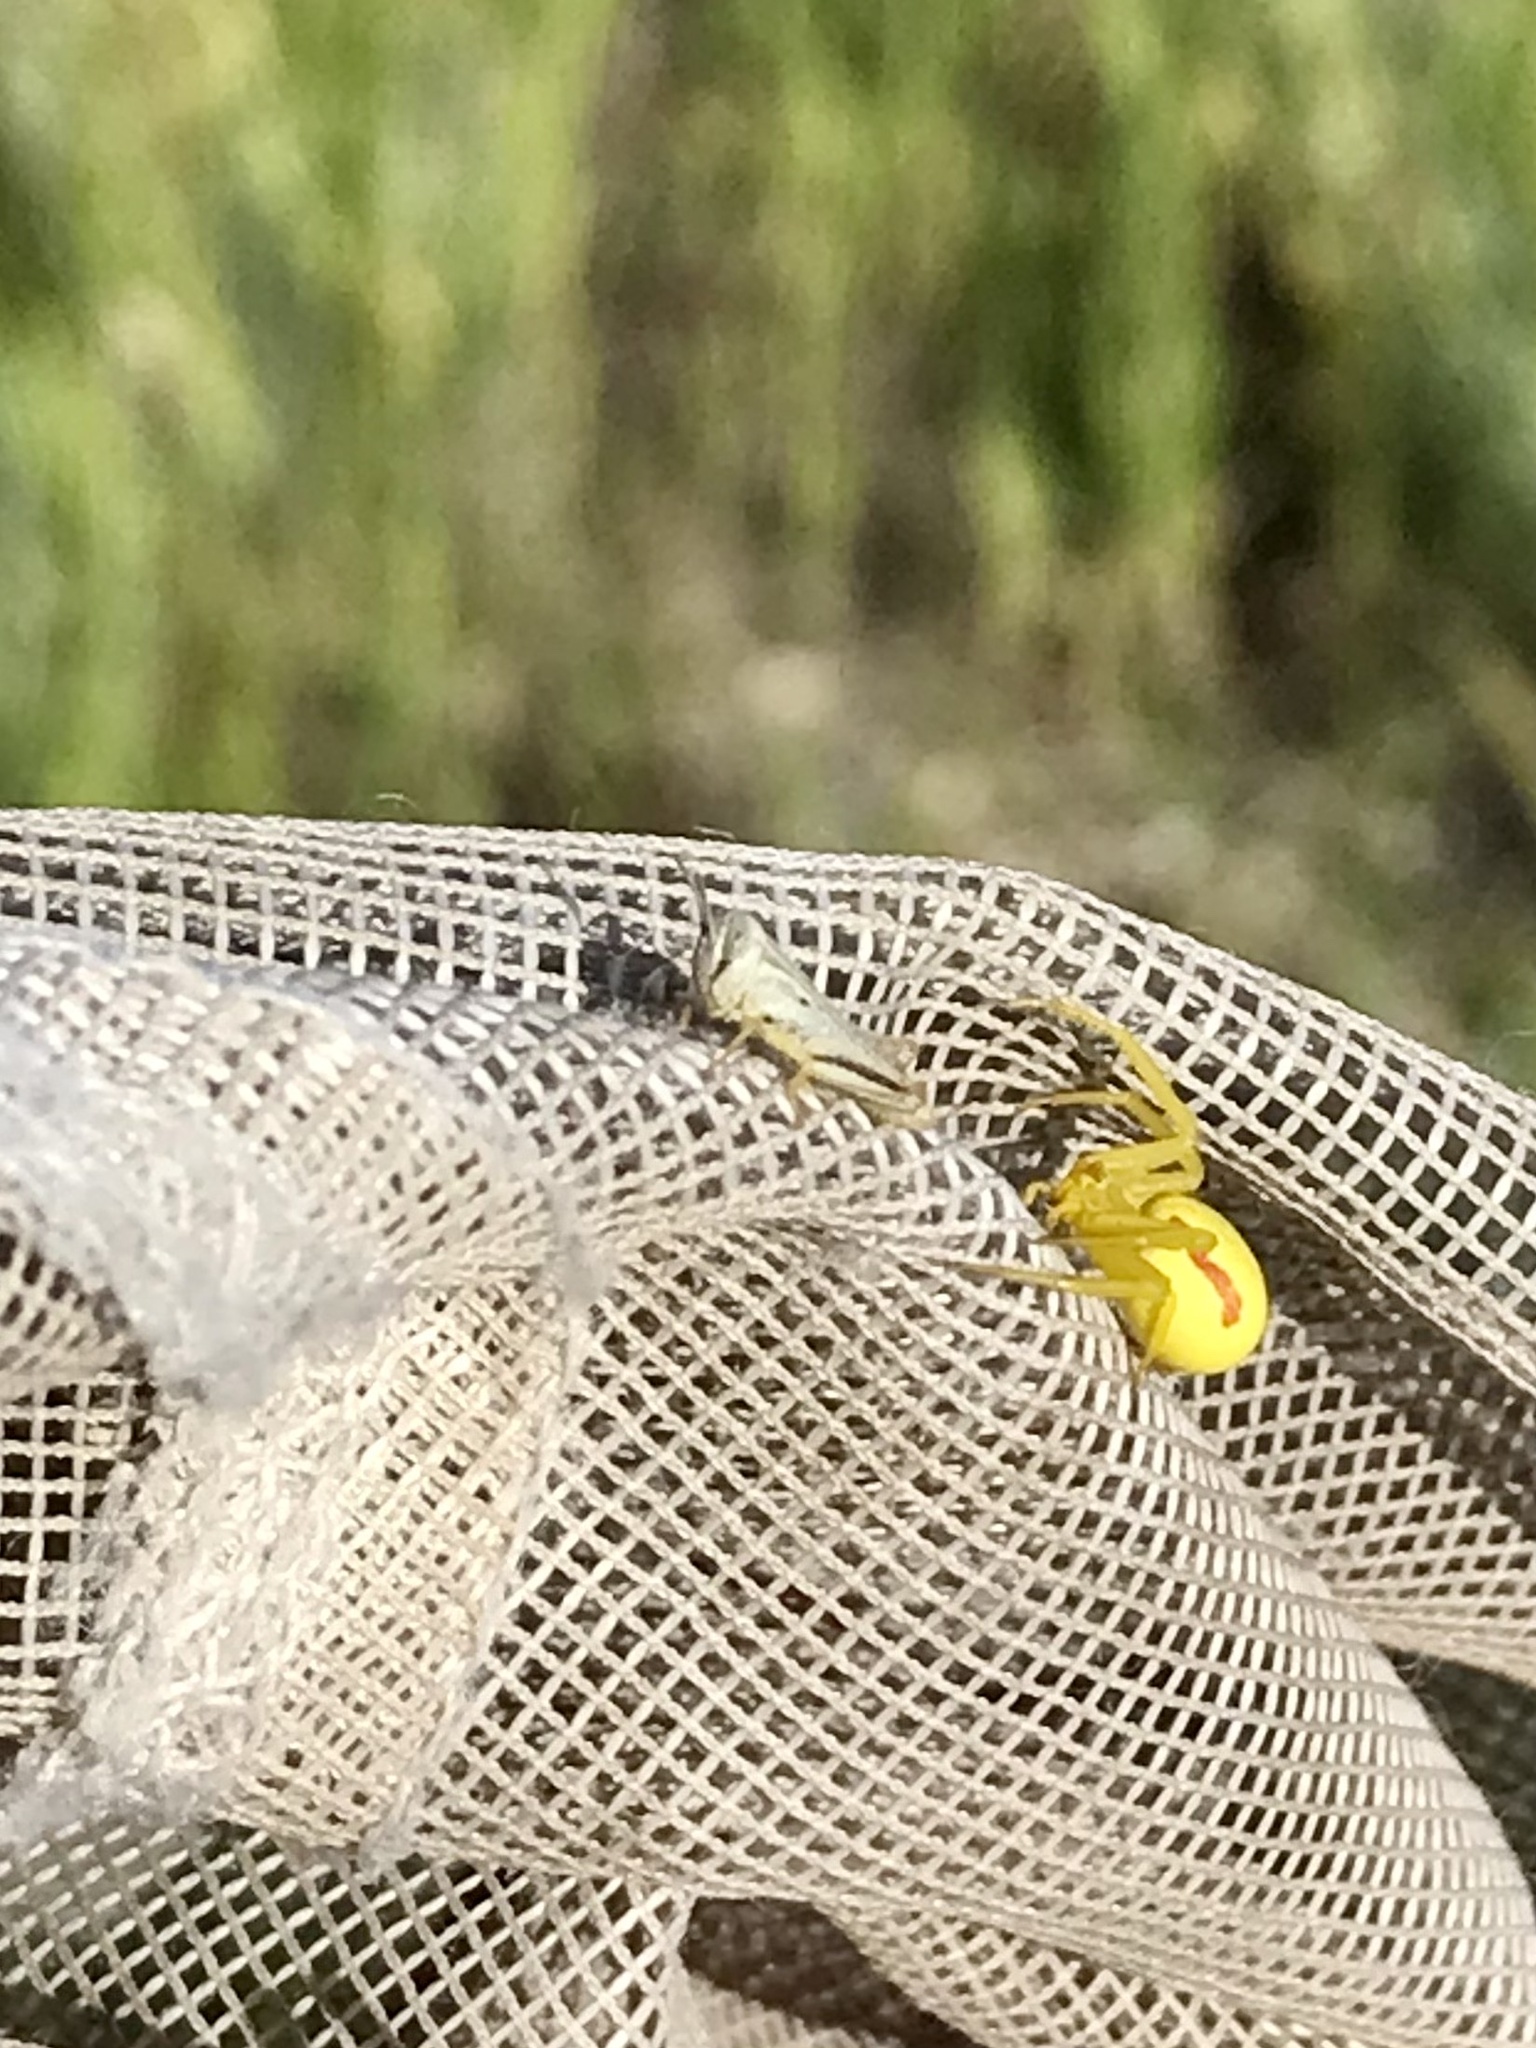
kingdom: Animalia
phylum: Arthropoda
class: Insecta
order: Orthoptera
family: Acrididae
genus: Phoetaliotes
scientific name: Phoetaliotes nebrascensis
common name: Large-headed grasshopper
